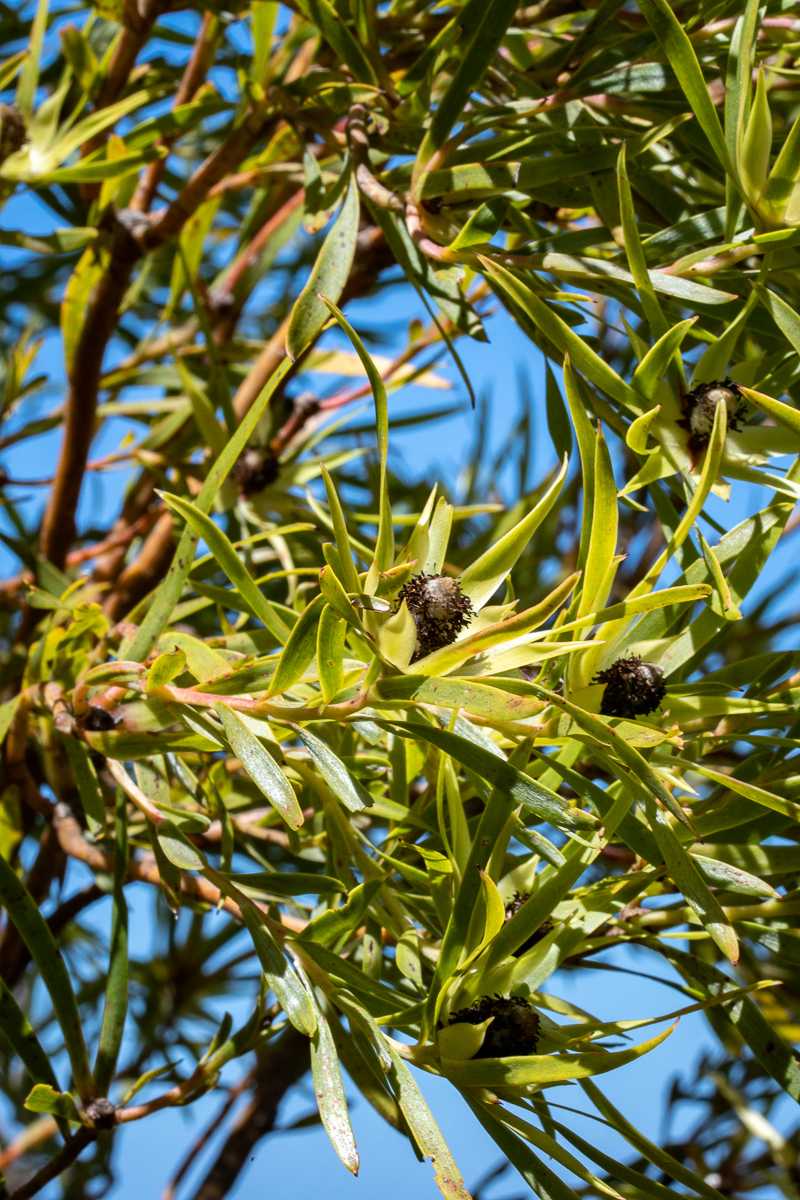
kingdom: Plantae
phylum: Tracheophyta
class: Magnoliopsida
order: Proteales
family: Proteaceae
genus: Leucadendron
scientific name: Leucadendron salicifolium
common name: Common stream conebush
